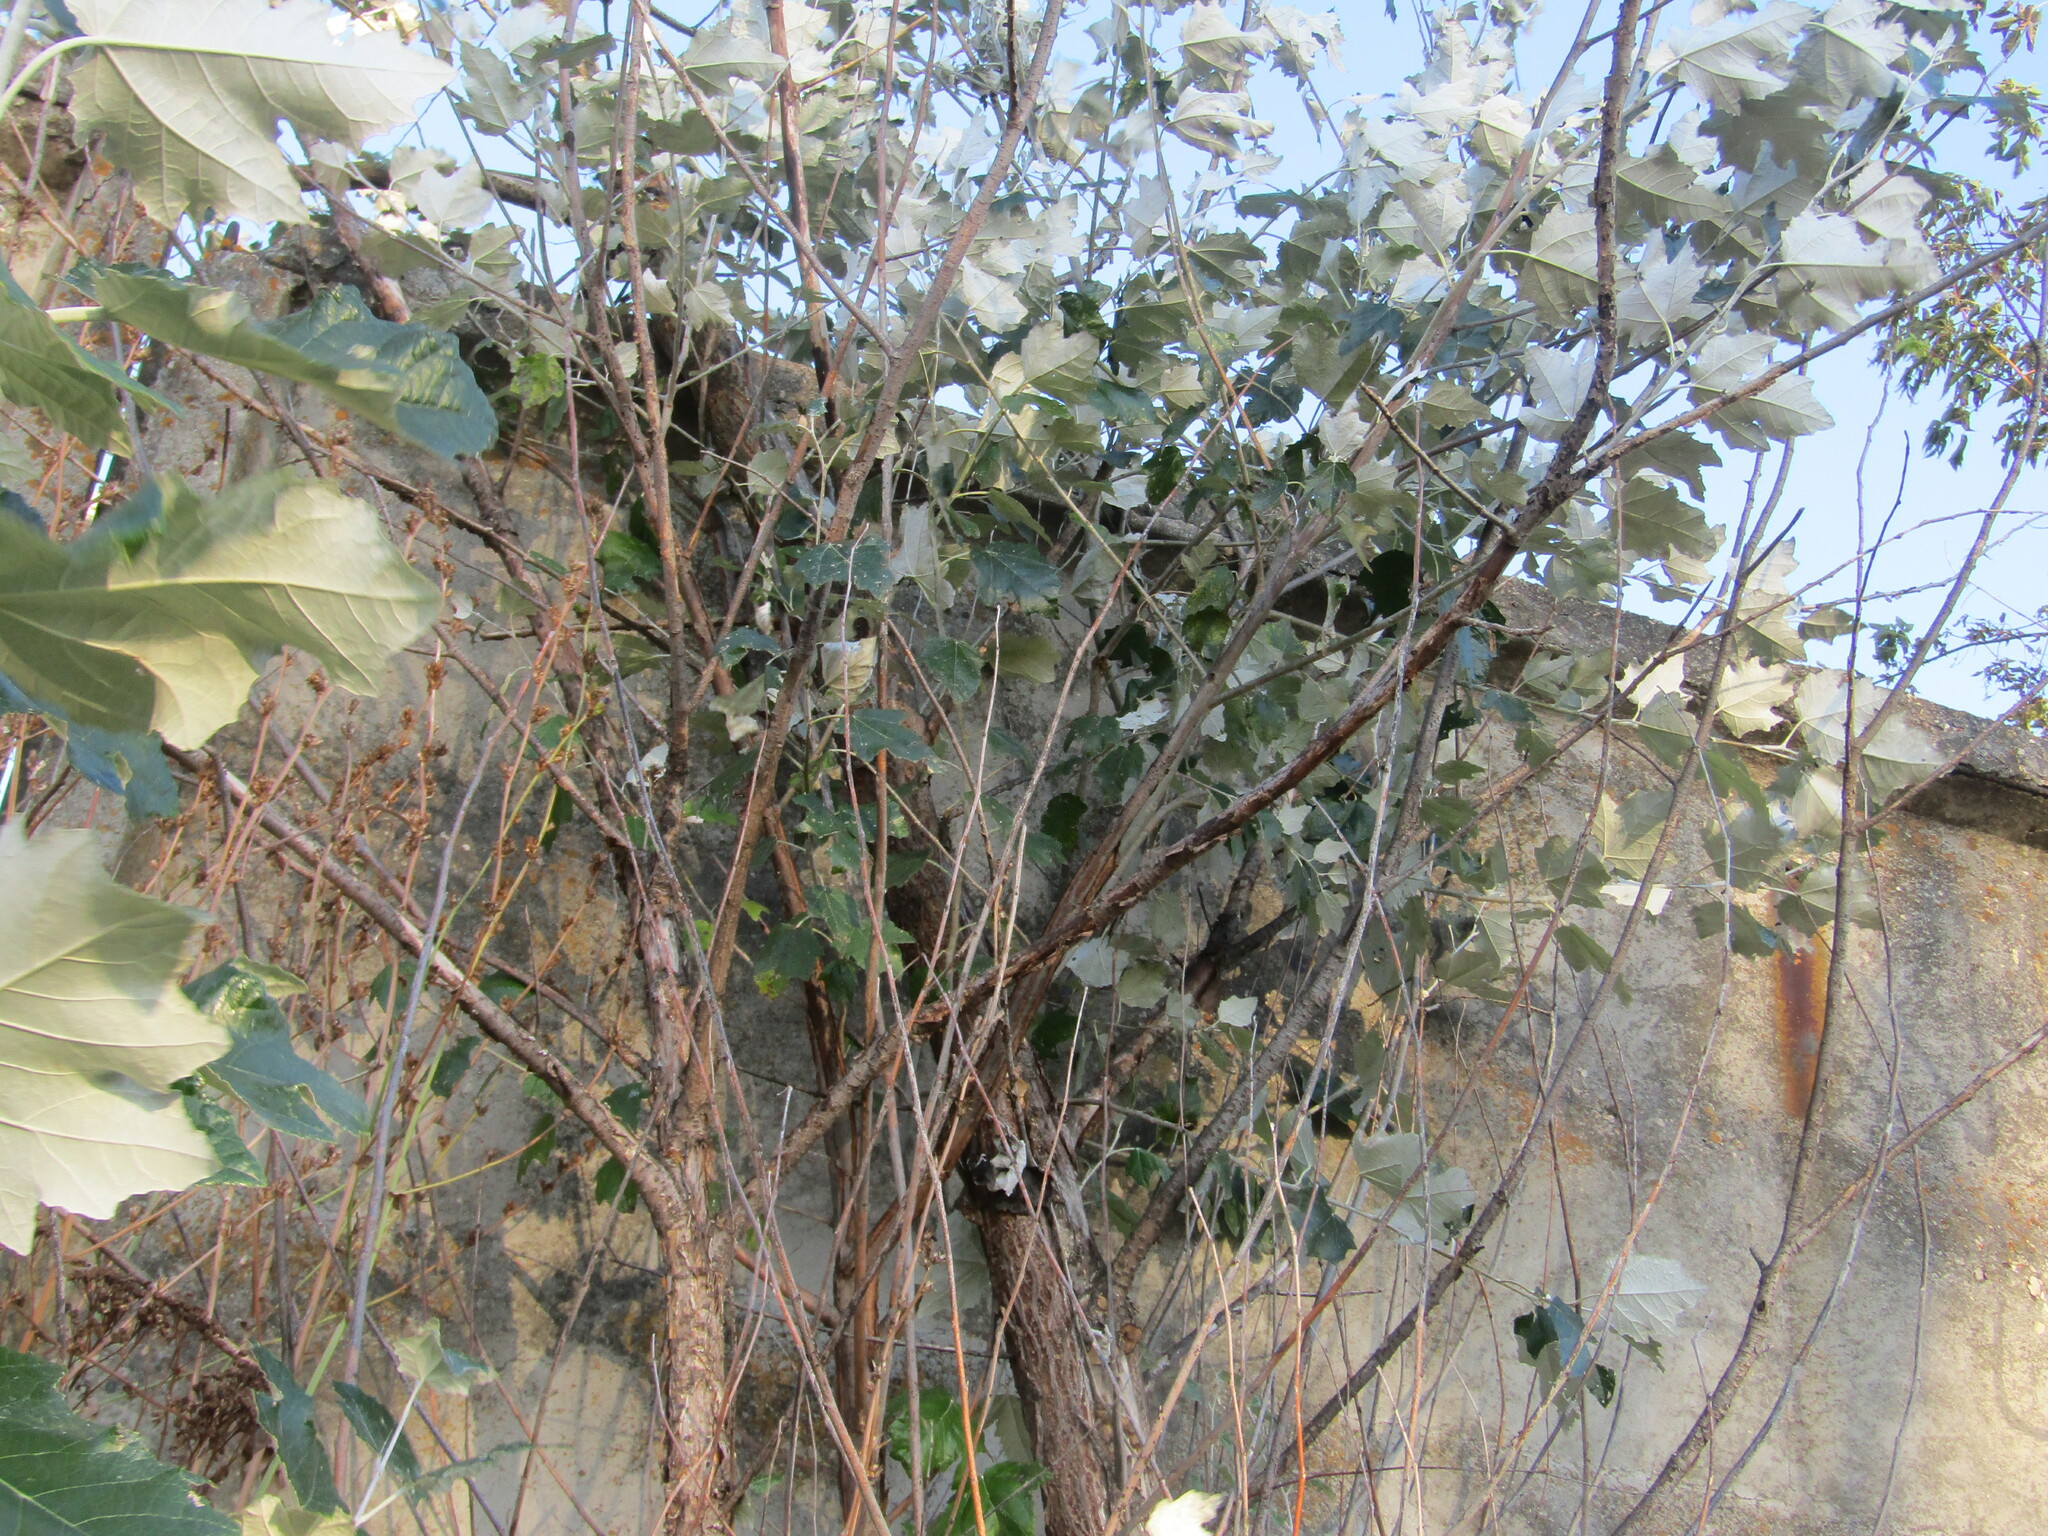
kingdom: Plantae
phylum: Tracheophyta
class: Magnoliopsida
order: Malpighiales
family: Salicaceae
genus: Populus
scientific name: Populus alba
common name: White poplar
